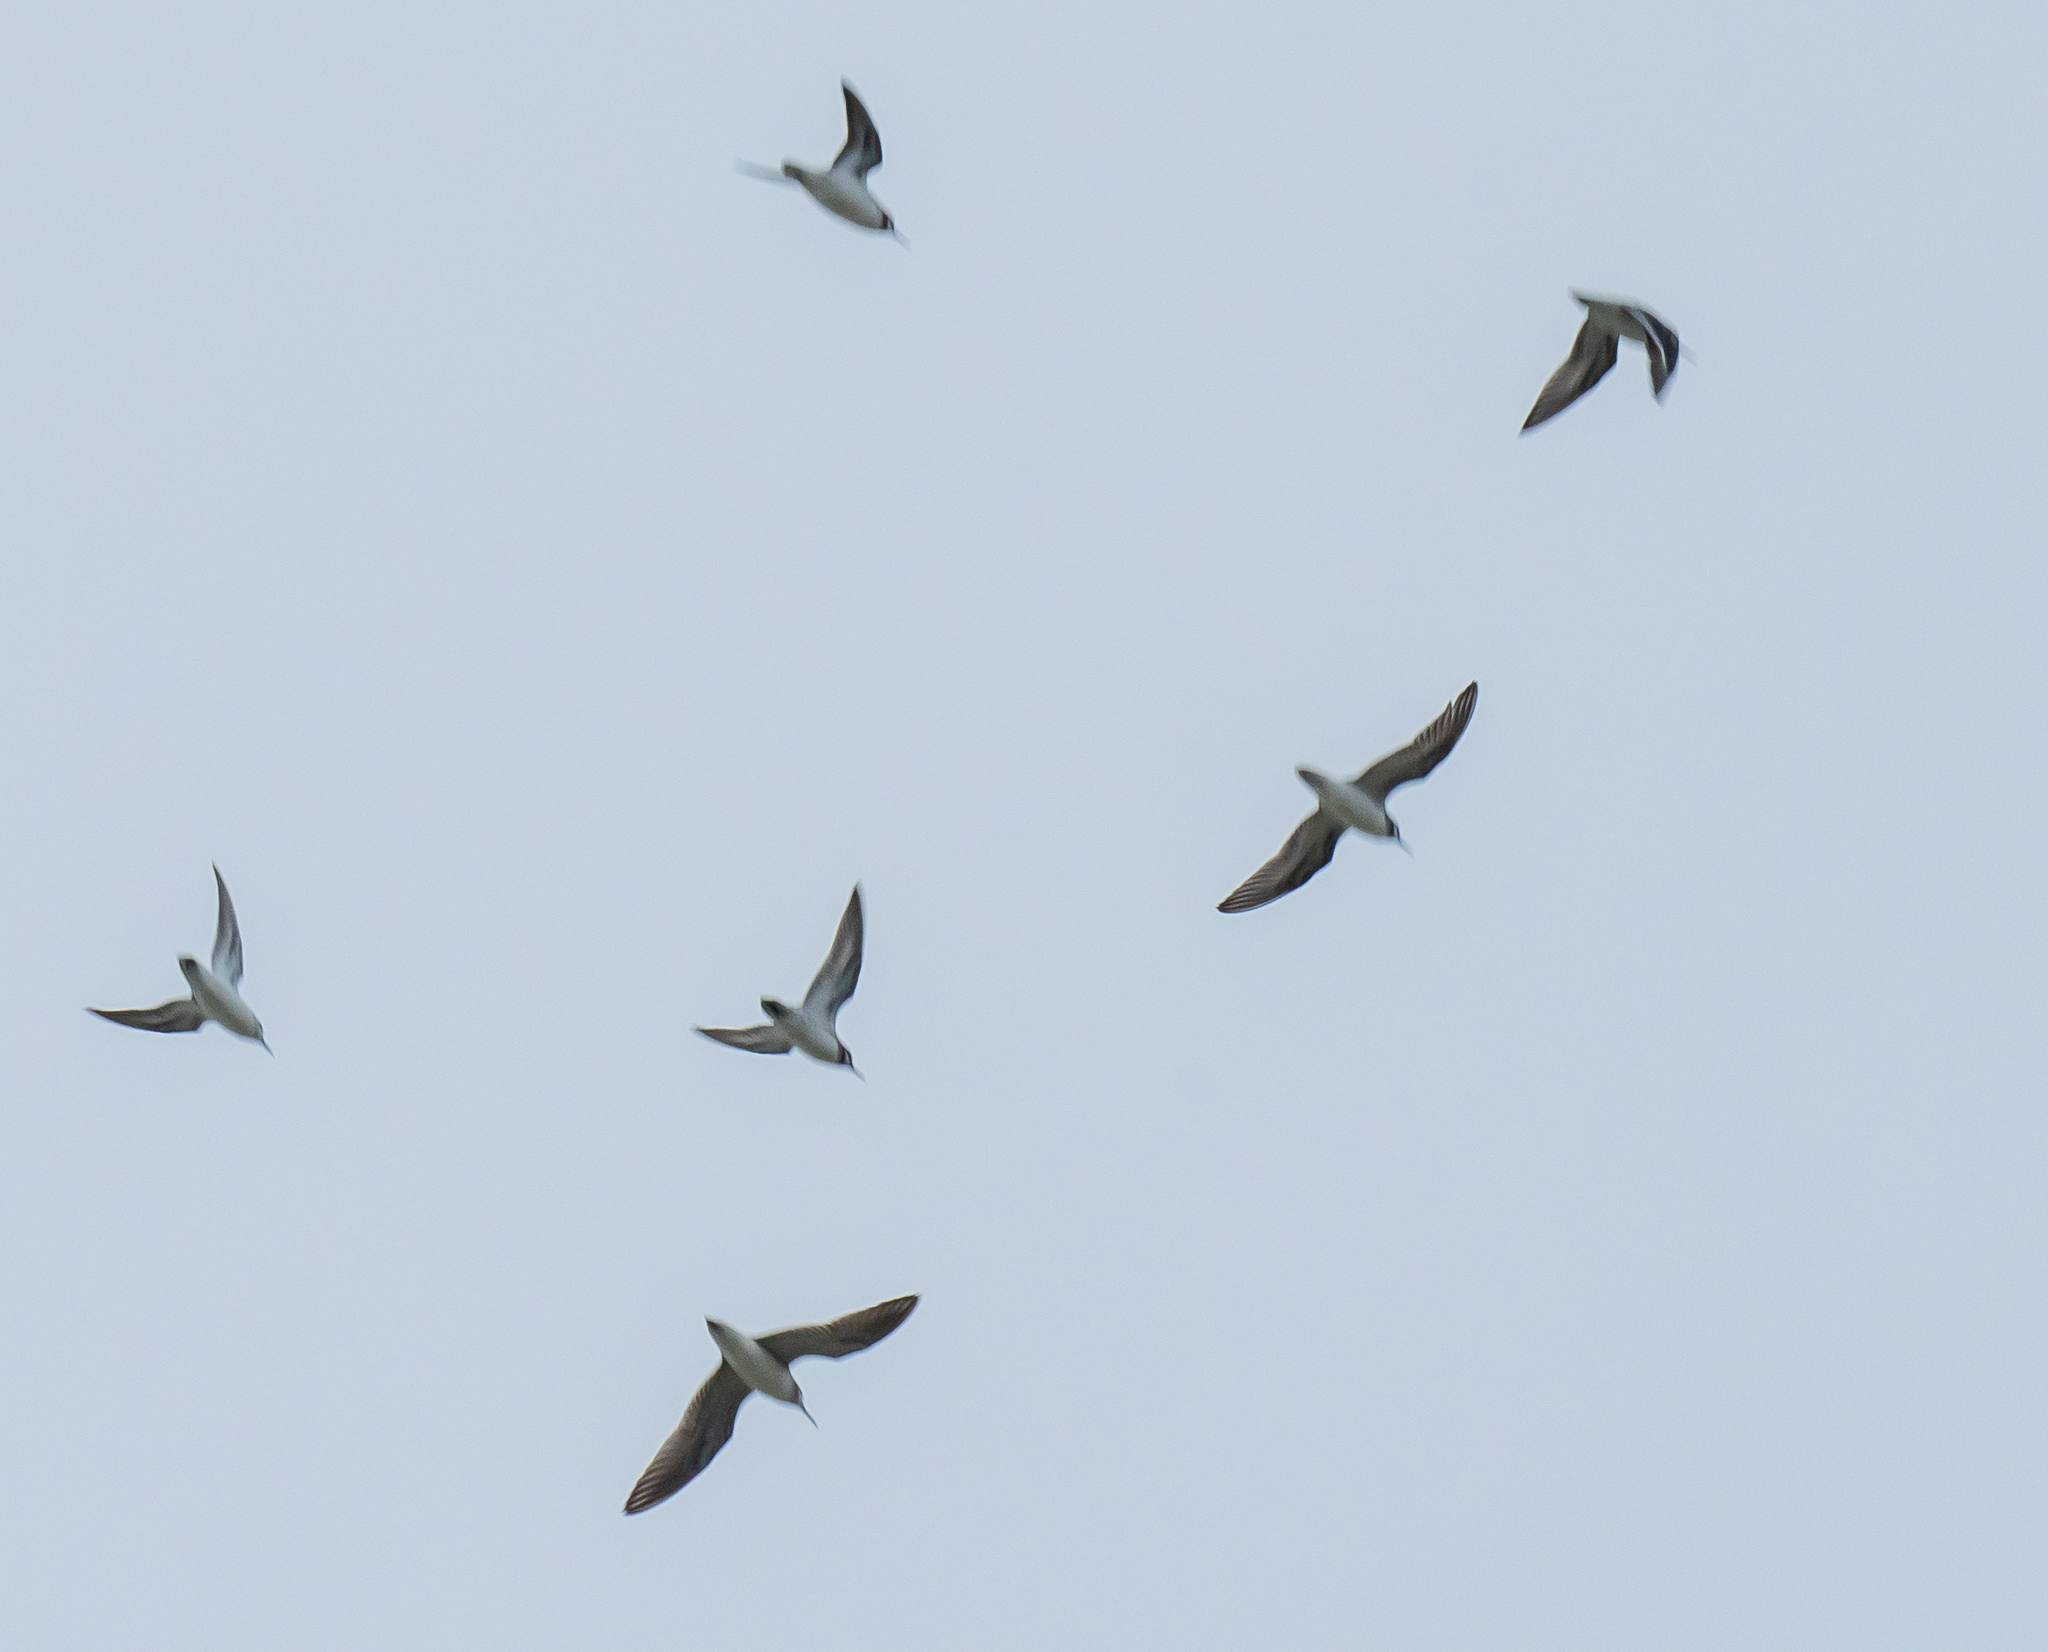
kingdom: Animalia
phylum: Chordata
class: Aves
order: Charadriiformes
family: Scolopacidae
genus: Phalaropus
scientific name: Phalaropus lobatus
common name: Red-necked phalarope
